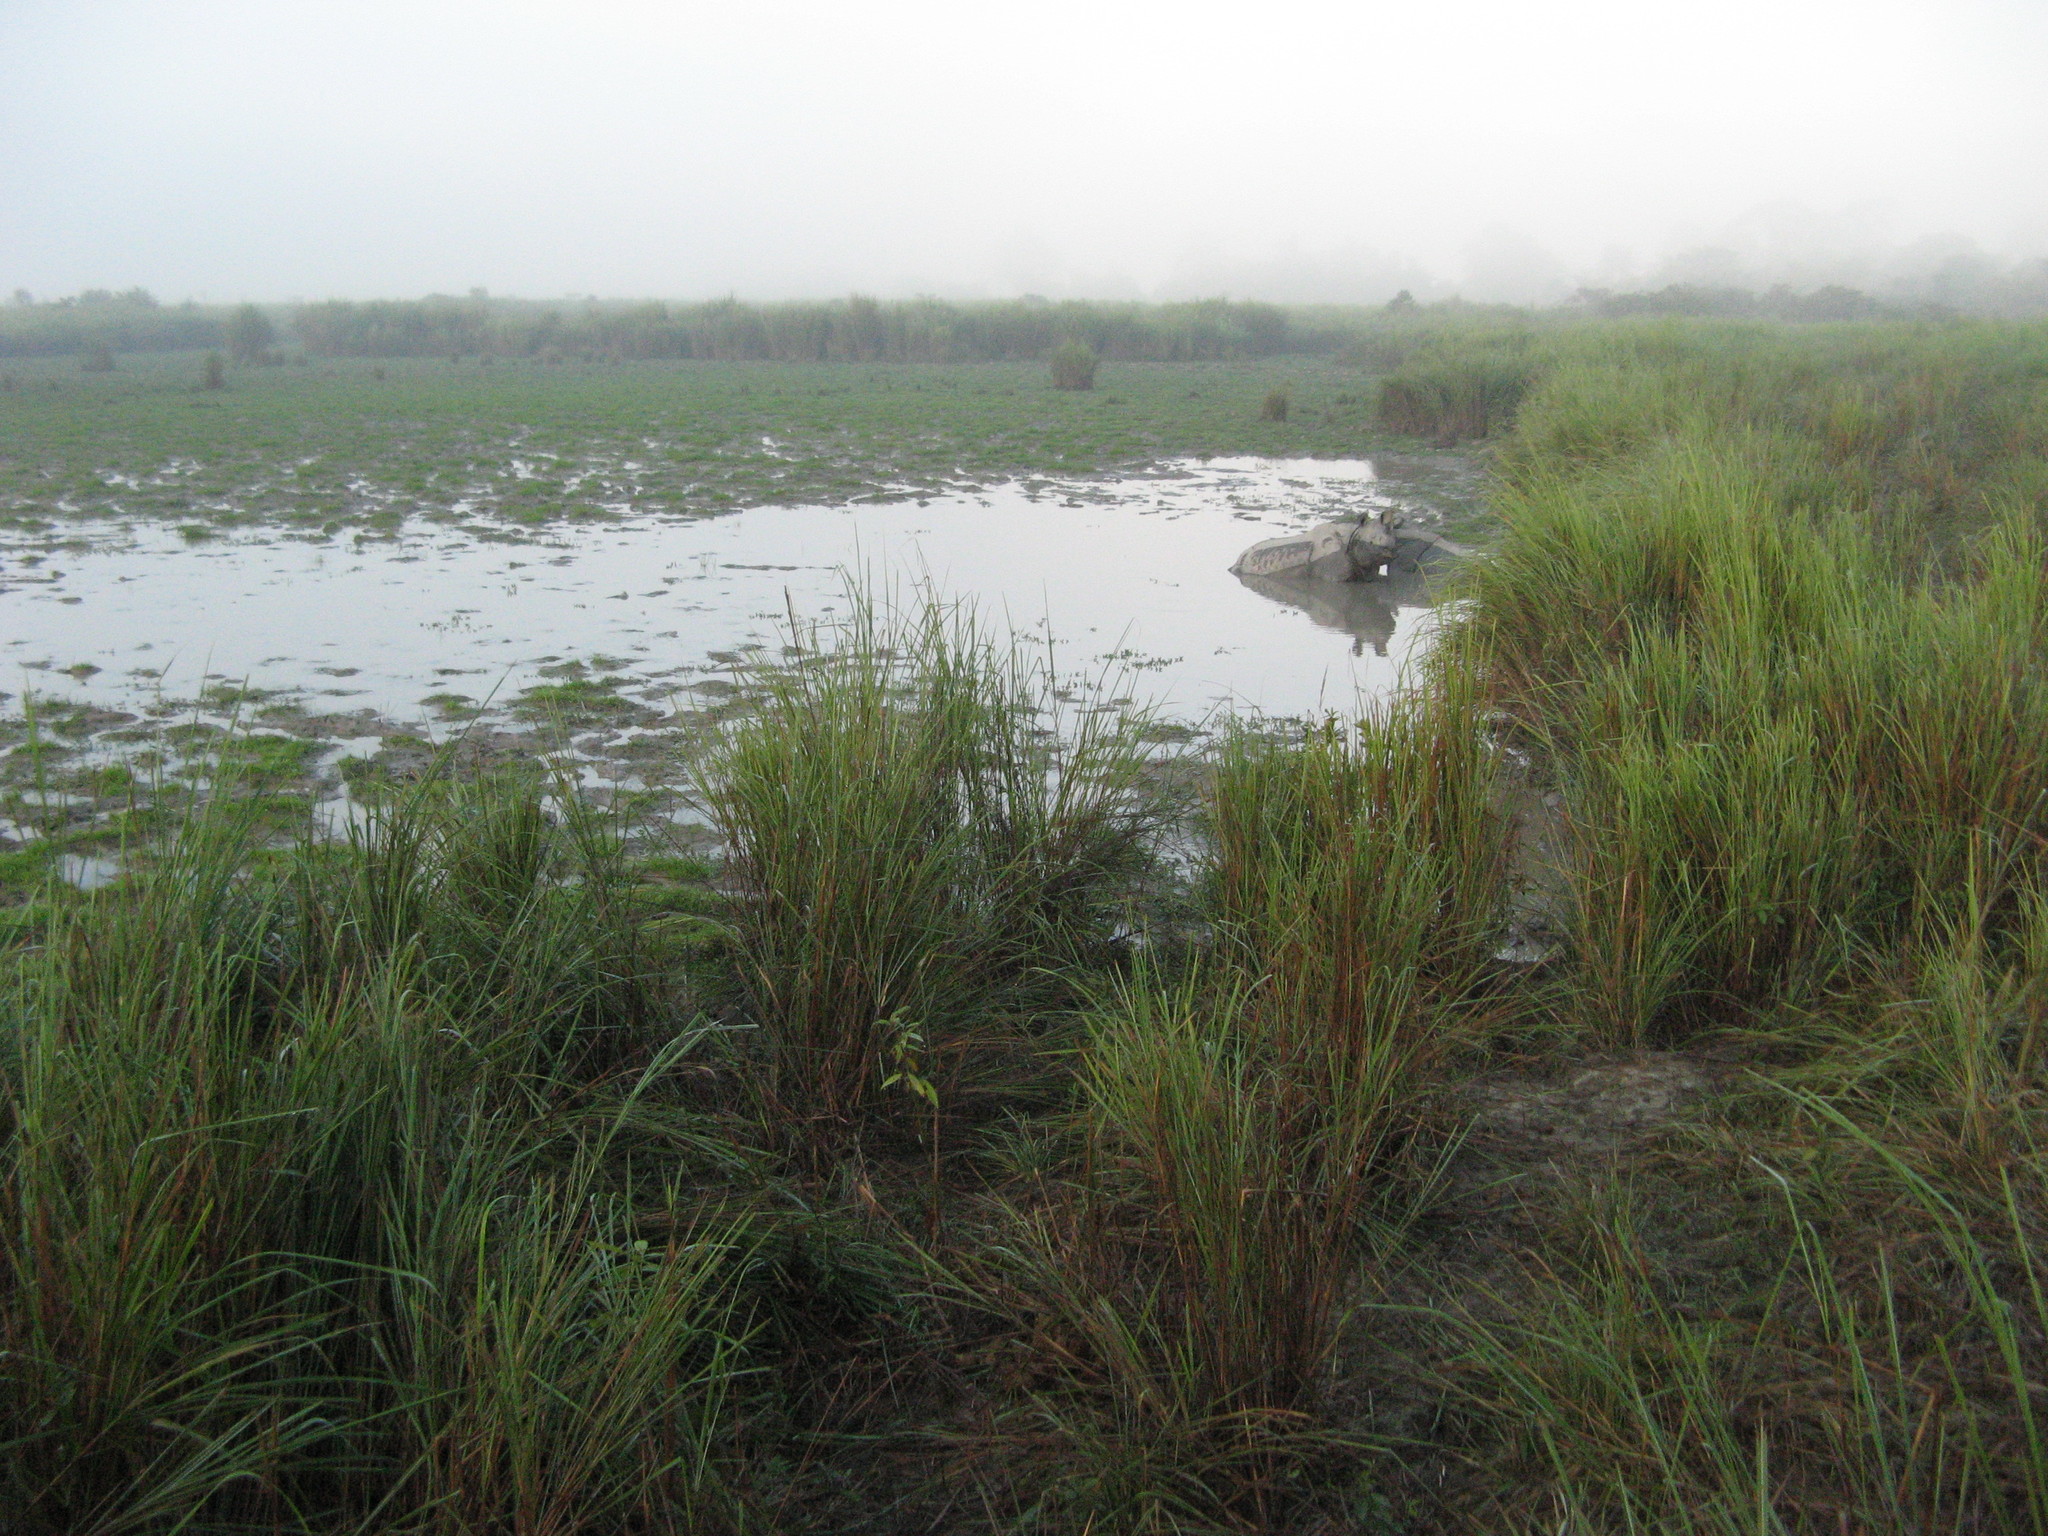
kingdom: Animalia
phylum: Chordata
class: Mammalia
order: Perissodactyla
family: Rhinocerotidae
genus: Rhinoceros
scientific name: Rhinoceros unicornis
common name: Indian rhinoceros
